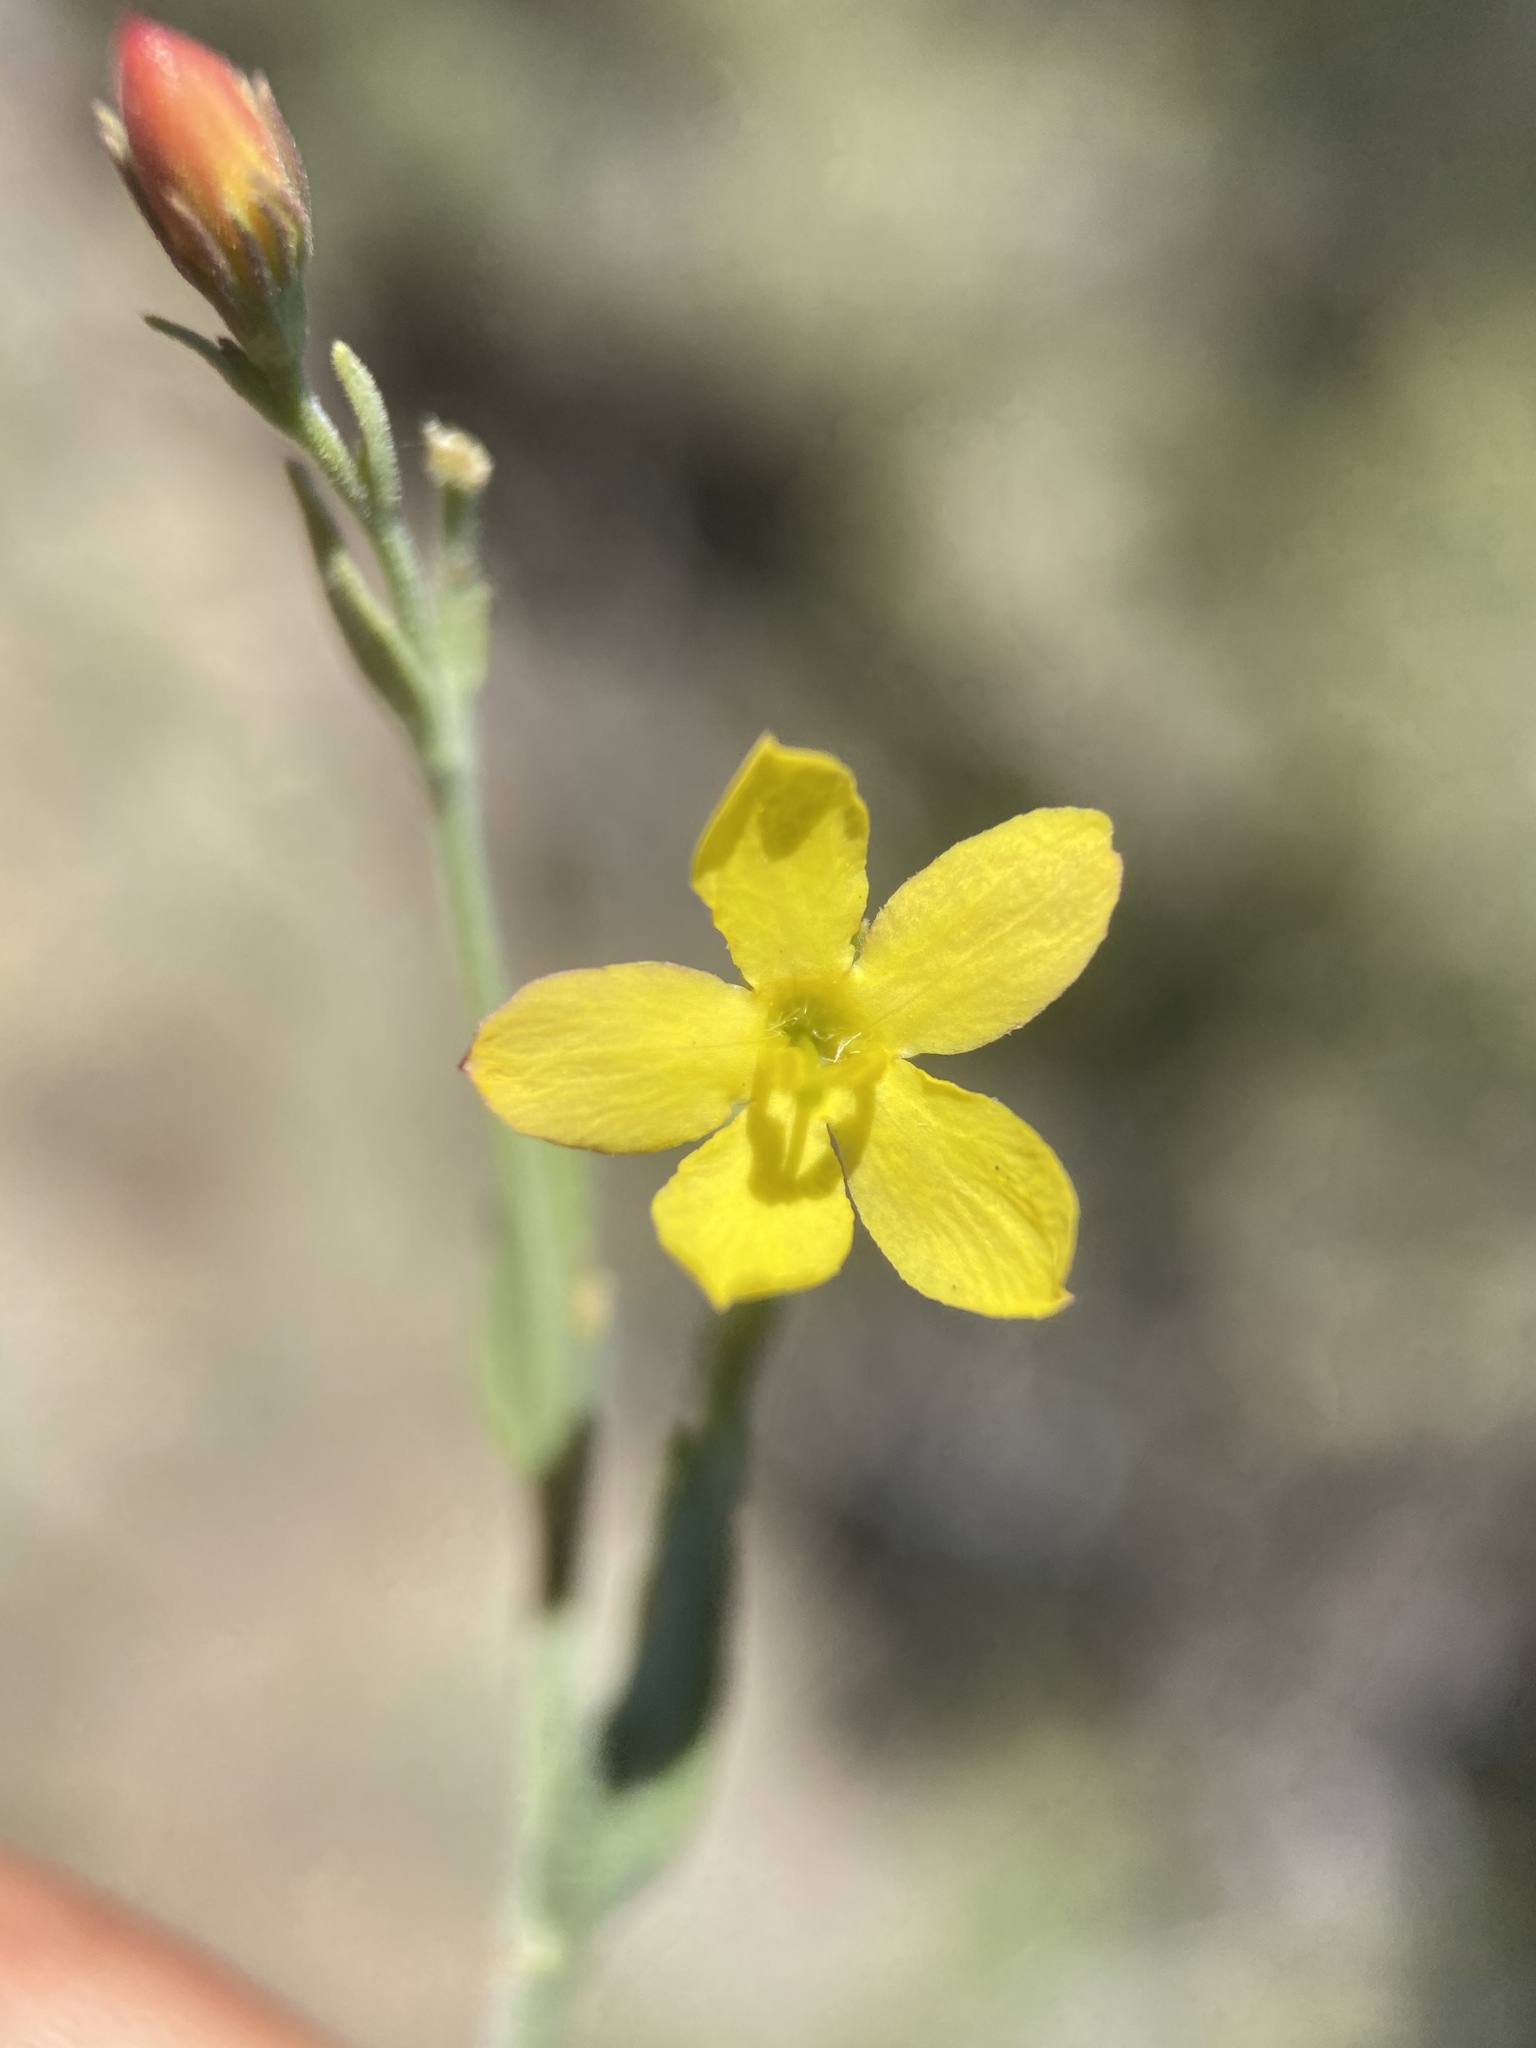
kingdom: Plantae
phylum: Tracheophyta
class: Magnoliopsida
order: Lamiales
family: Oleaceae
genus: Menodora
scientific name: Menodora scabra
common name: Rough menodora
